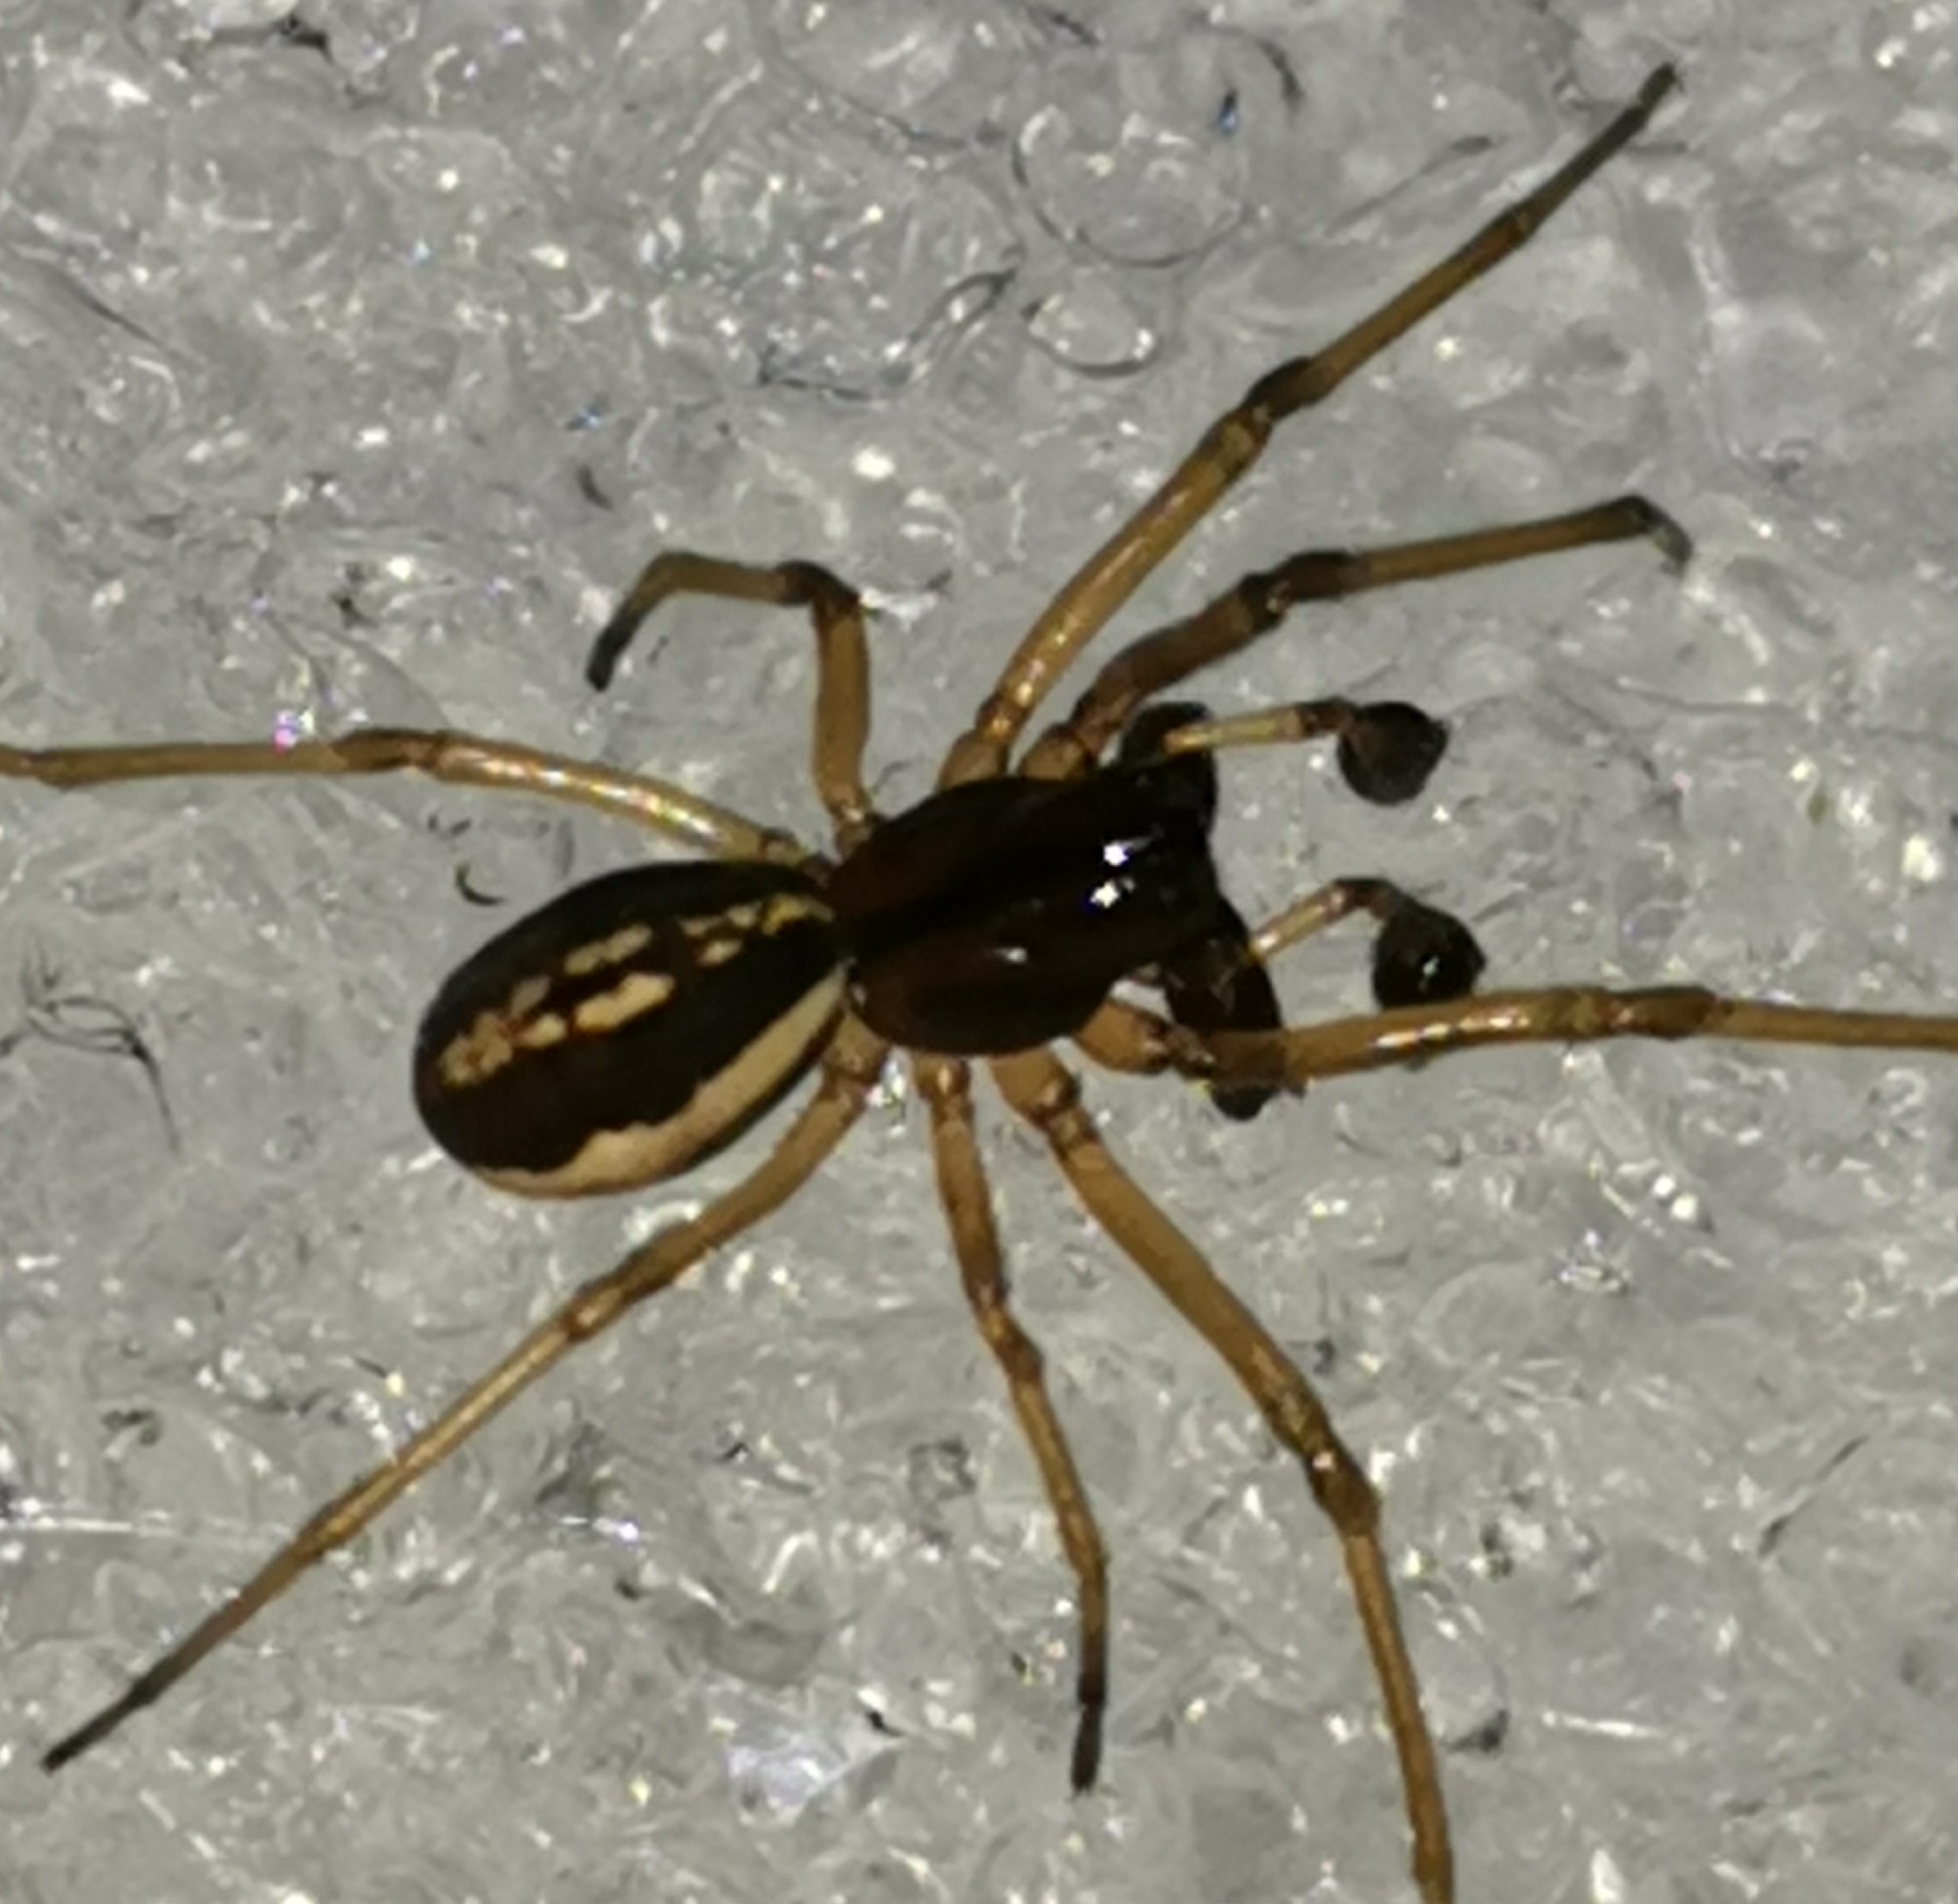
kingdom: Animalia
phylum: Arthropoda
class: Arachnida
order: Araneae
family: Tetragnathidae
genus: Pachygnatha
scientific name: Pachygnatha degeeri
